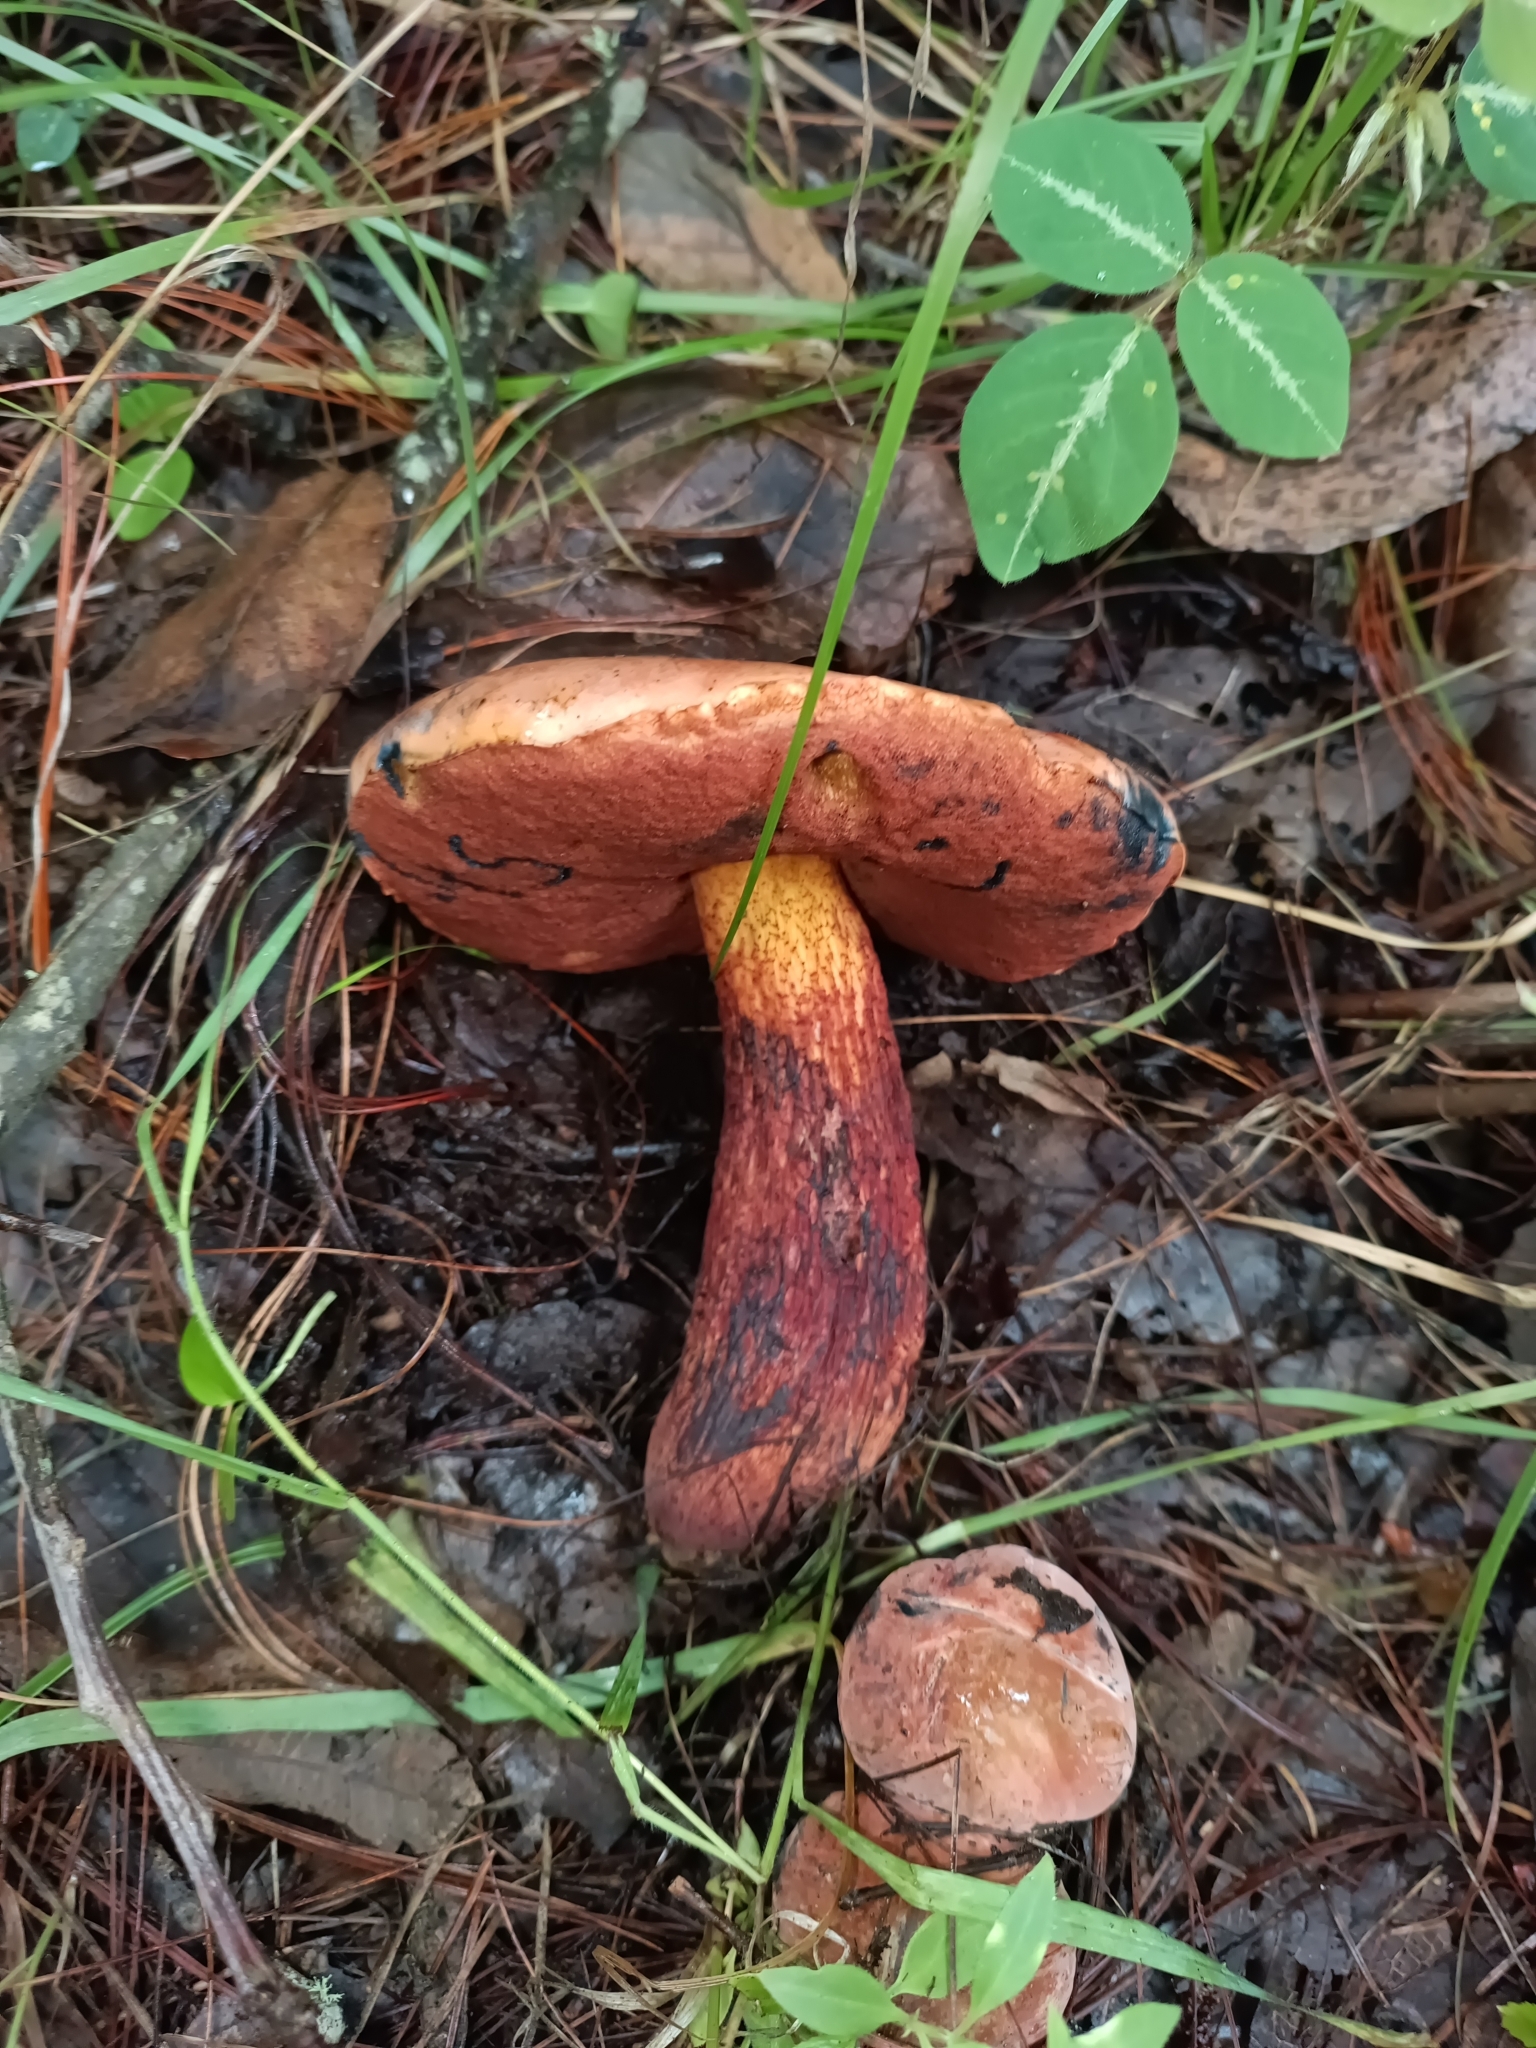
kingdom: Fungi
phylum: Basidiomycota
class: Agaricomycetes
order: Boletales
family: Boletaceae
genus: Boletus
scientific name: Boletus subvelutipes
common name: Red-mouth bolete
